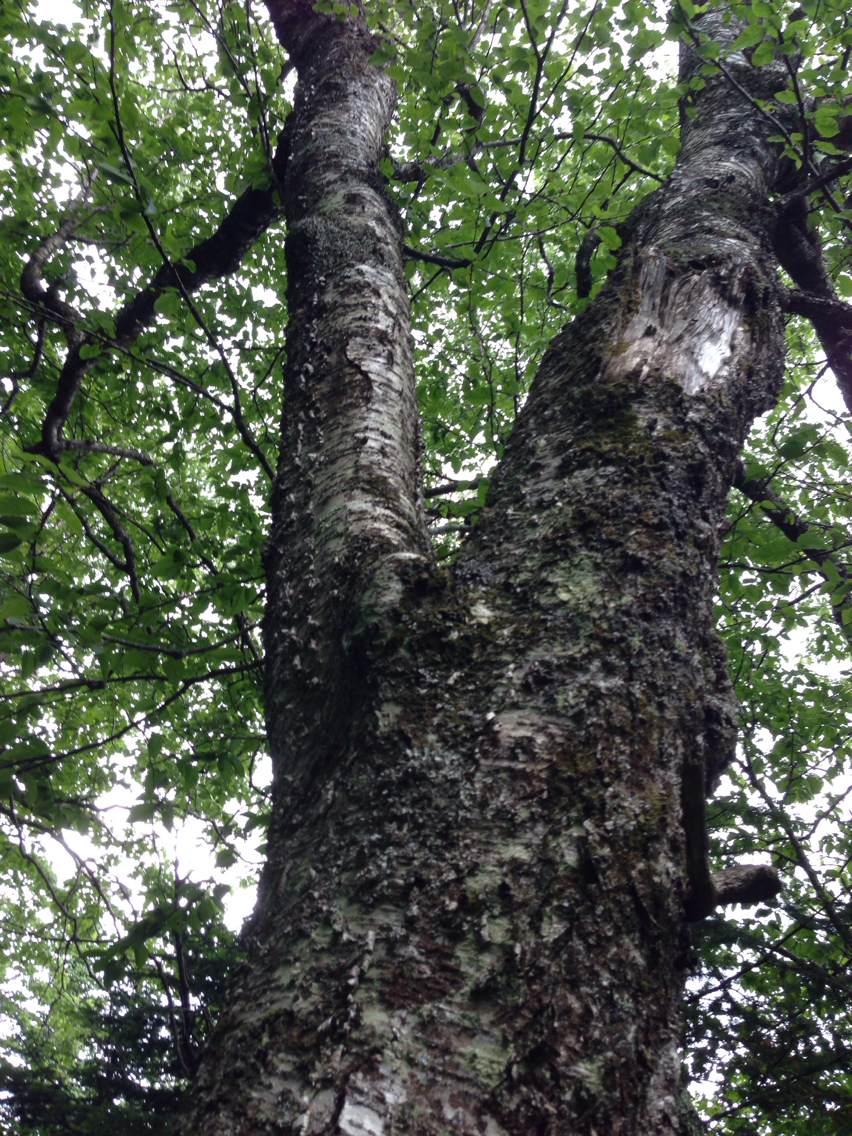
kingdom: Plantae
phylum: Tracheophyta
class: Magnoliopsida
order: Fagales
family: Betulaceae
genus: Betula
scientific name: Betula alleghaniensis
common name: Yellow birch
